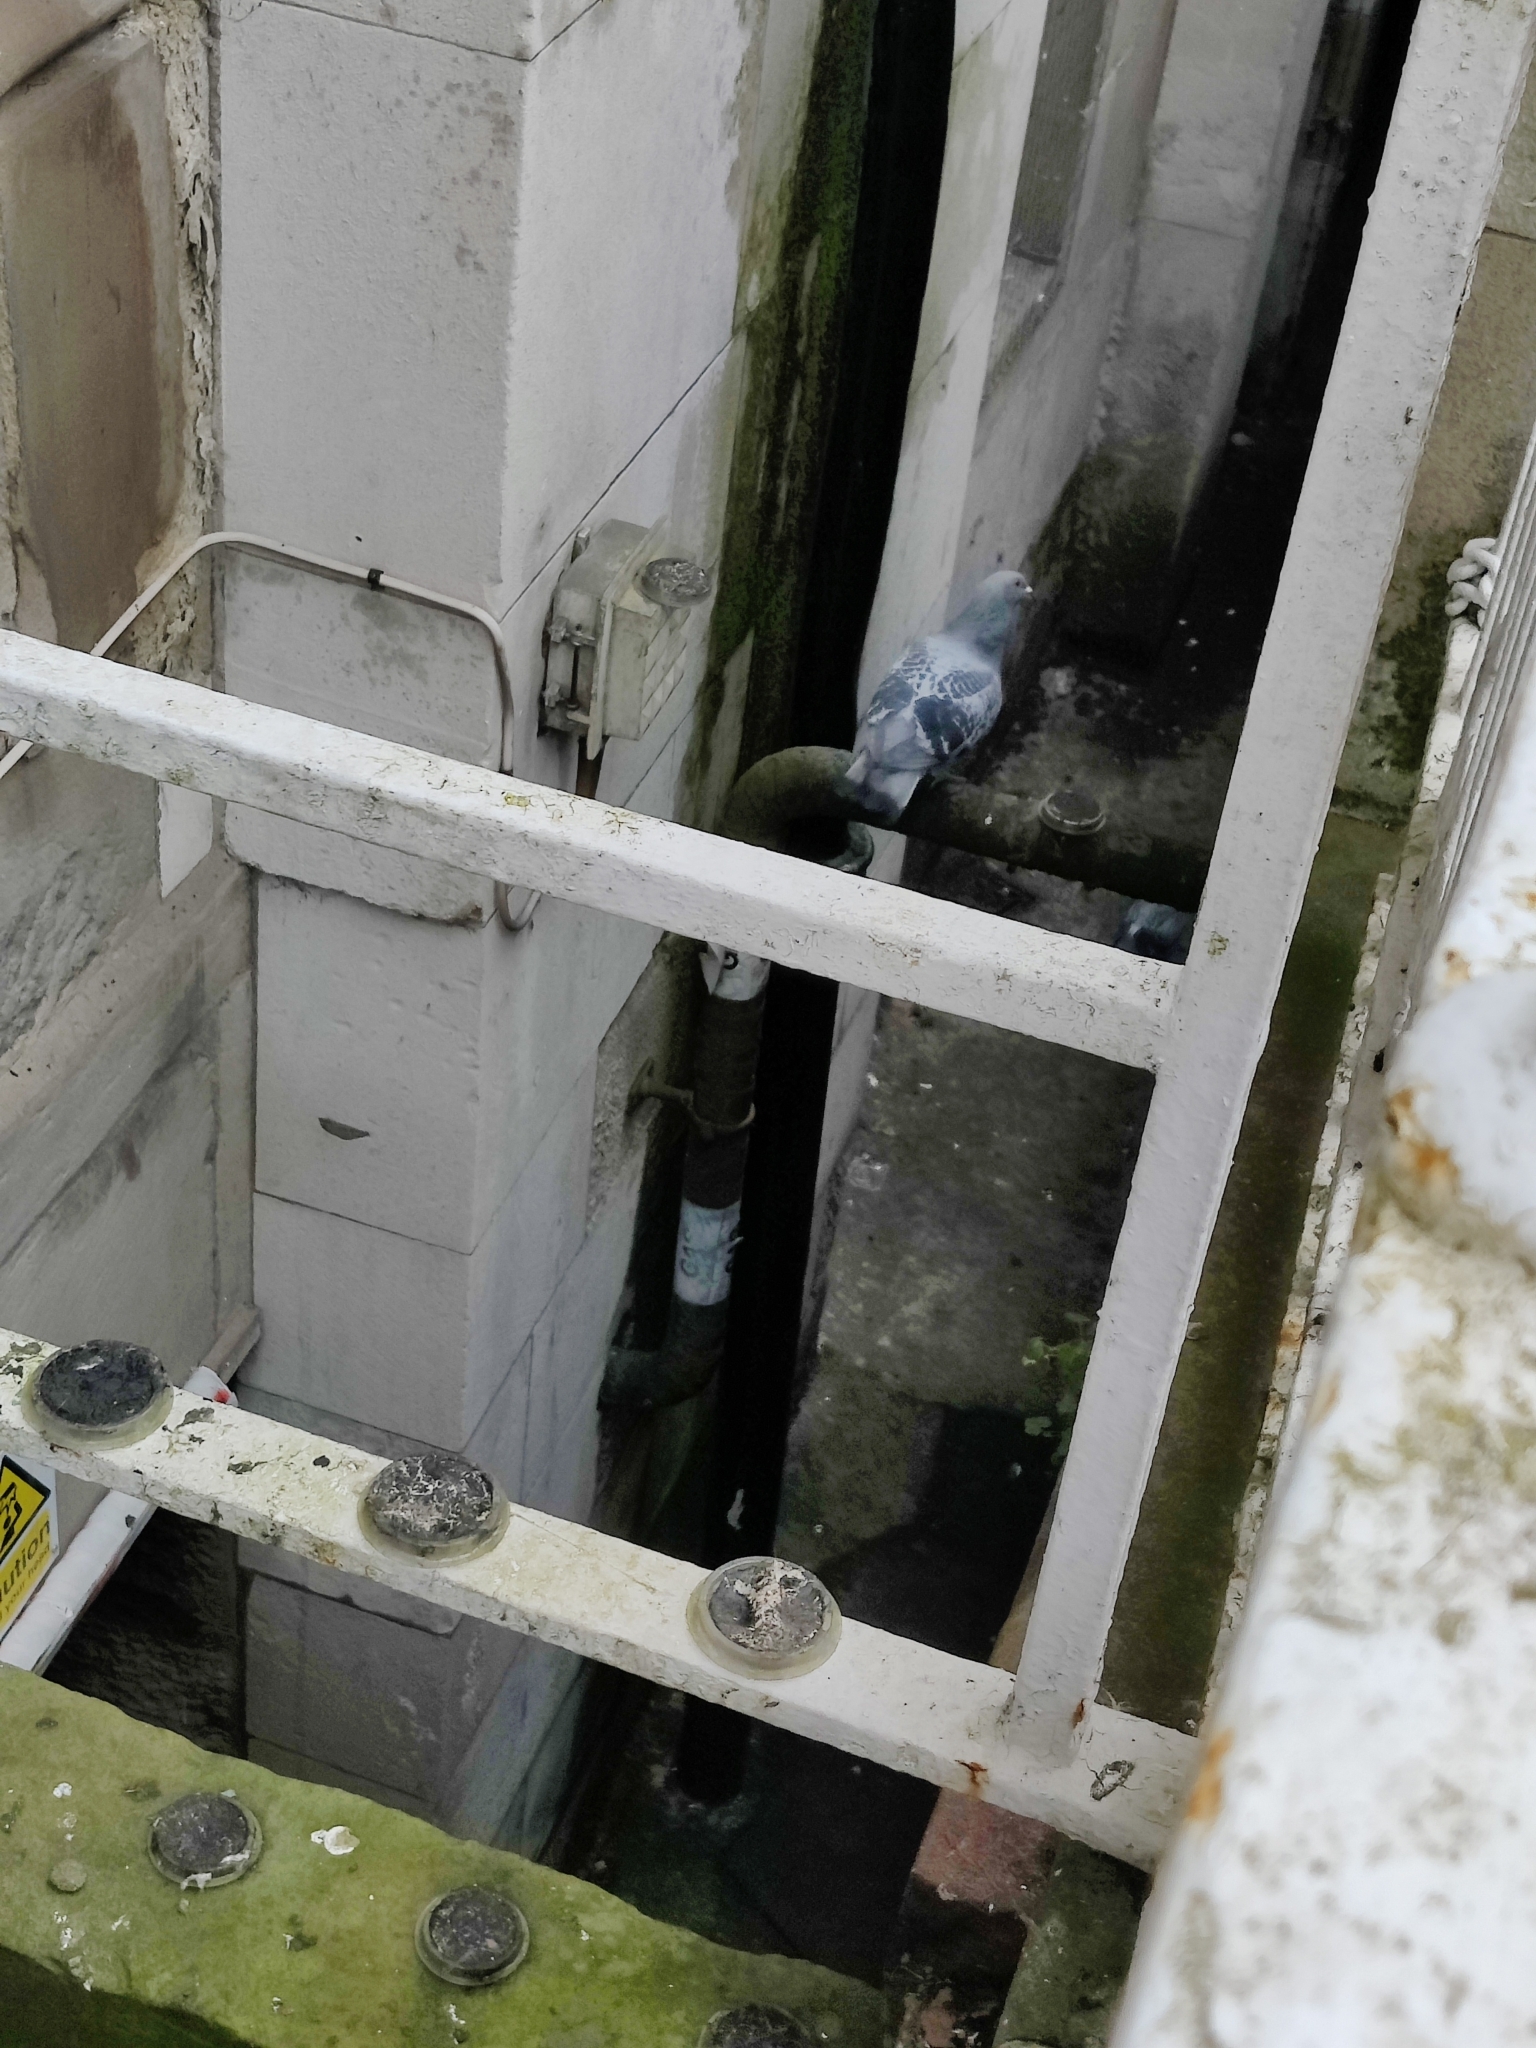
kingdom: Animalia
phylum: Chordata
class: Aves
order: Columbiformes
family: Columbidae
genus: Columba
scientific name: Columba livia
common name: Rock pigeon
